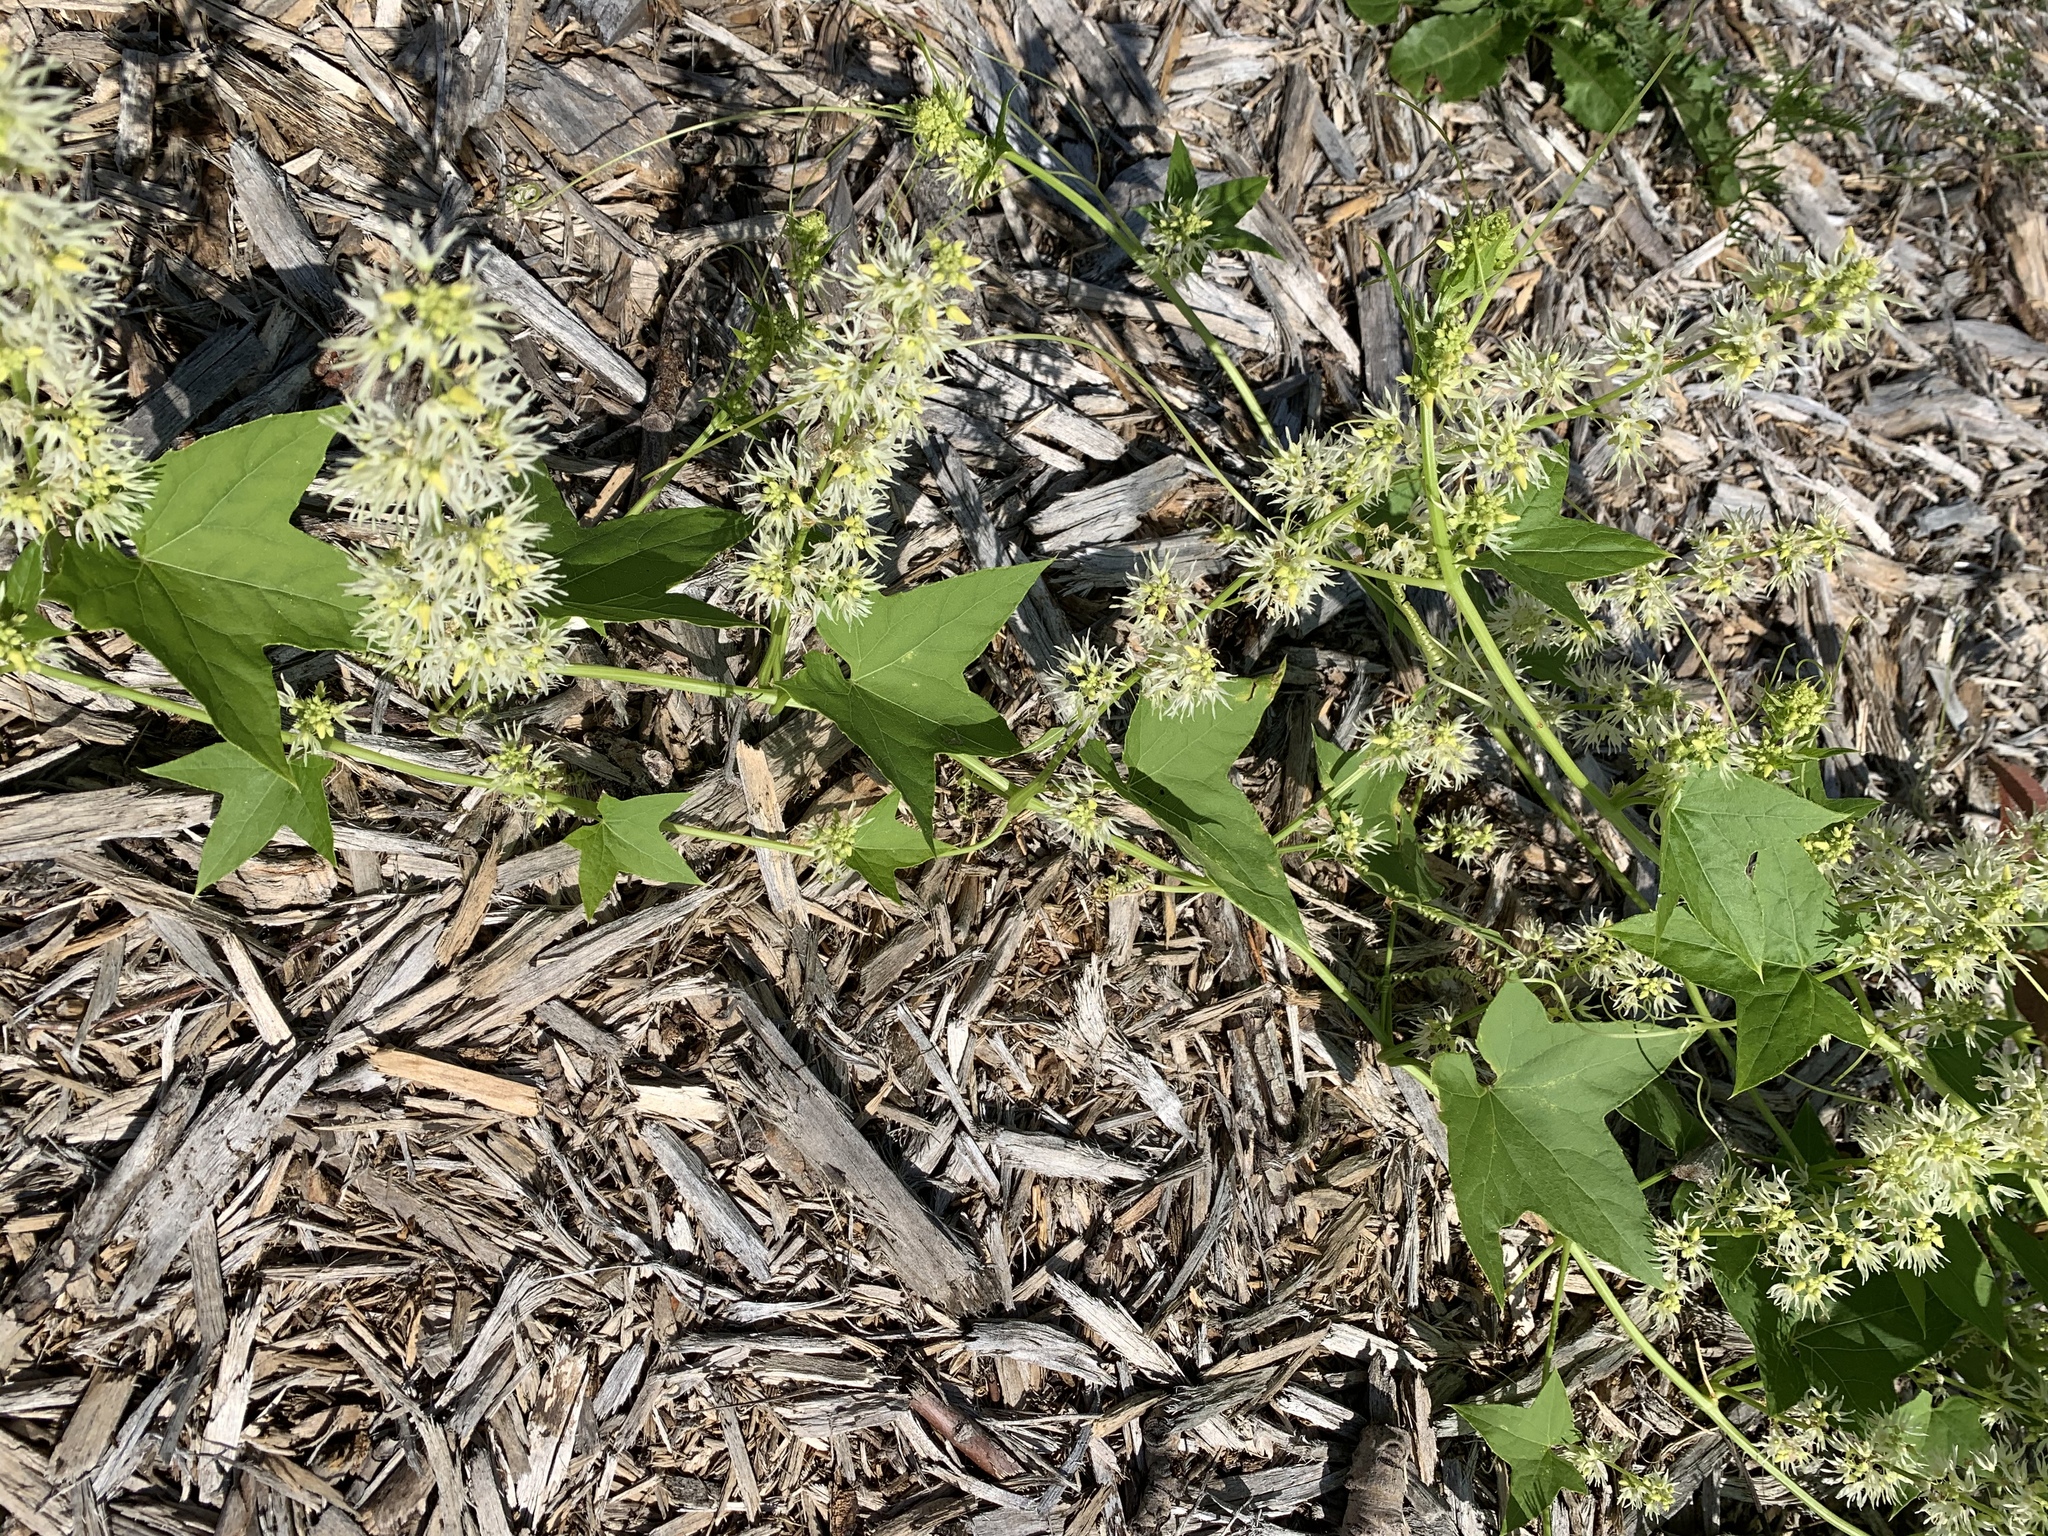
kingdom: Plantae
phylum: Tracheophyta
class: Magnoliopsida
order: Cucurbitales
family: Cucurbitaceae
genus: Echinocystis
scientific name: Echinocystis lobata
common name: Wild cucumber
